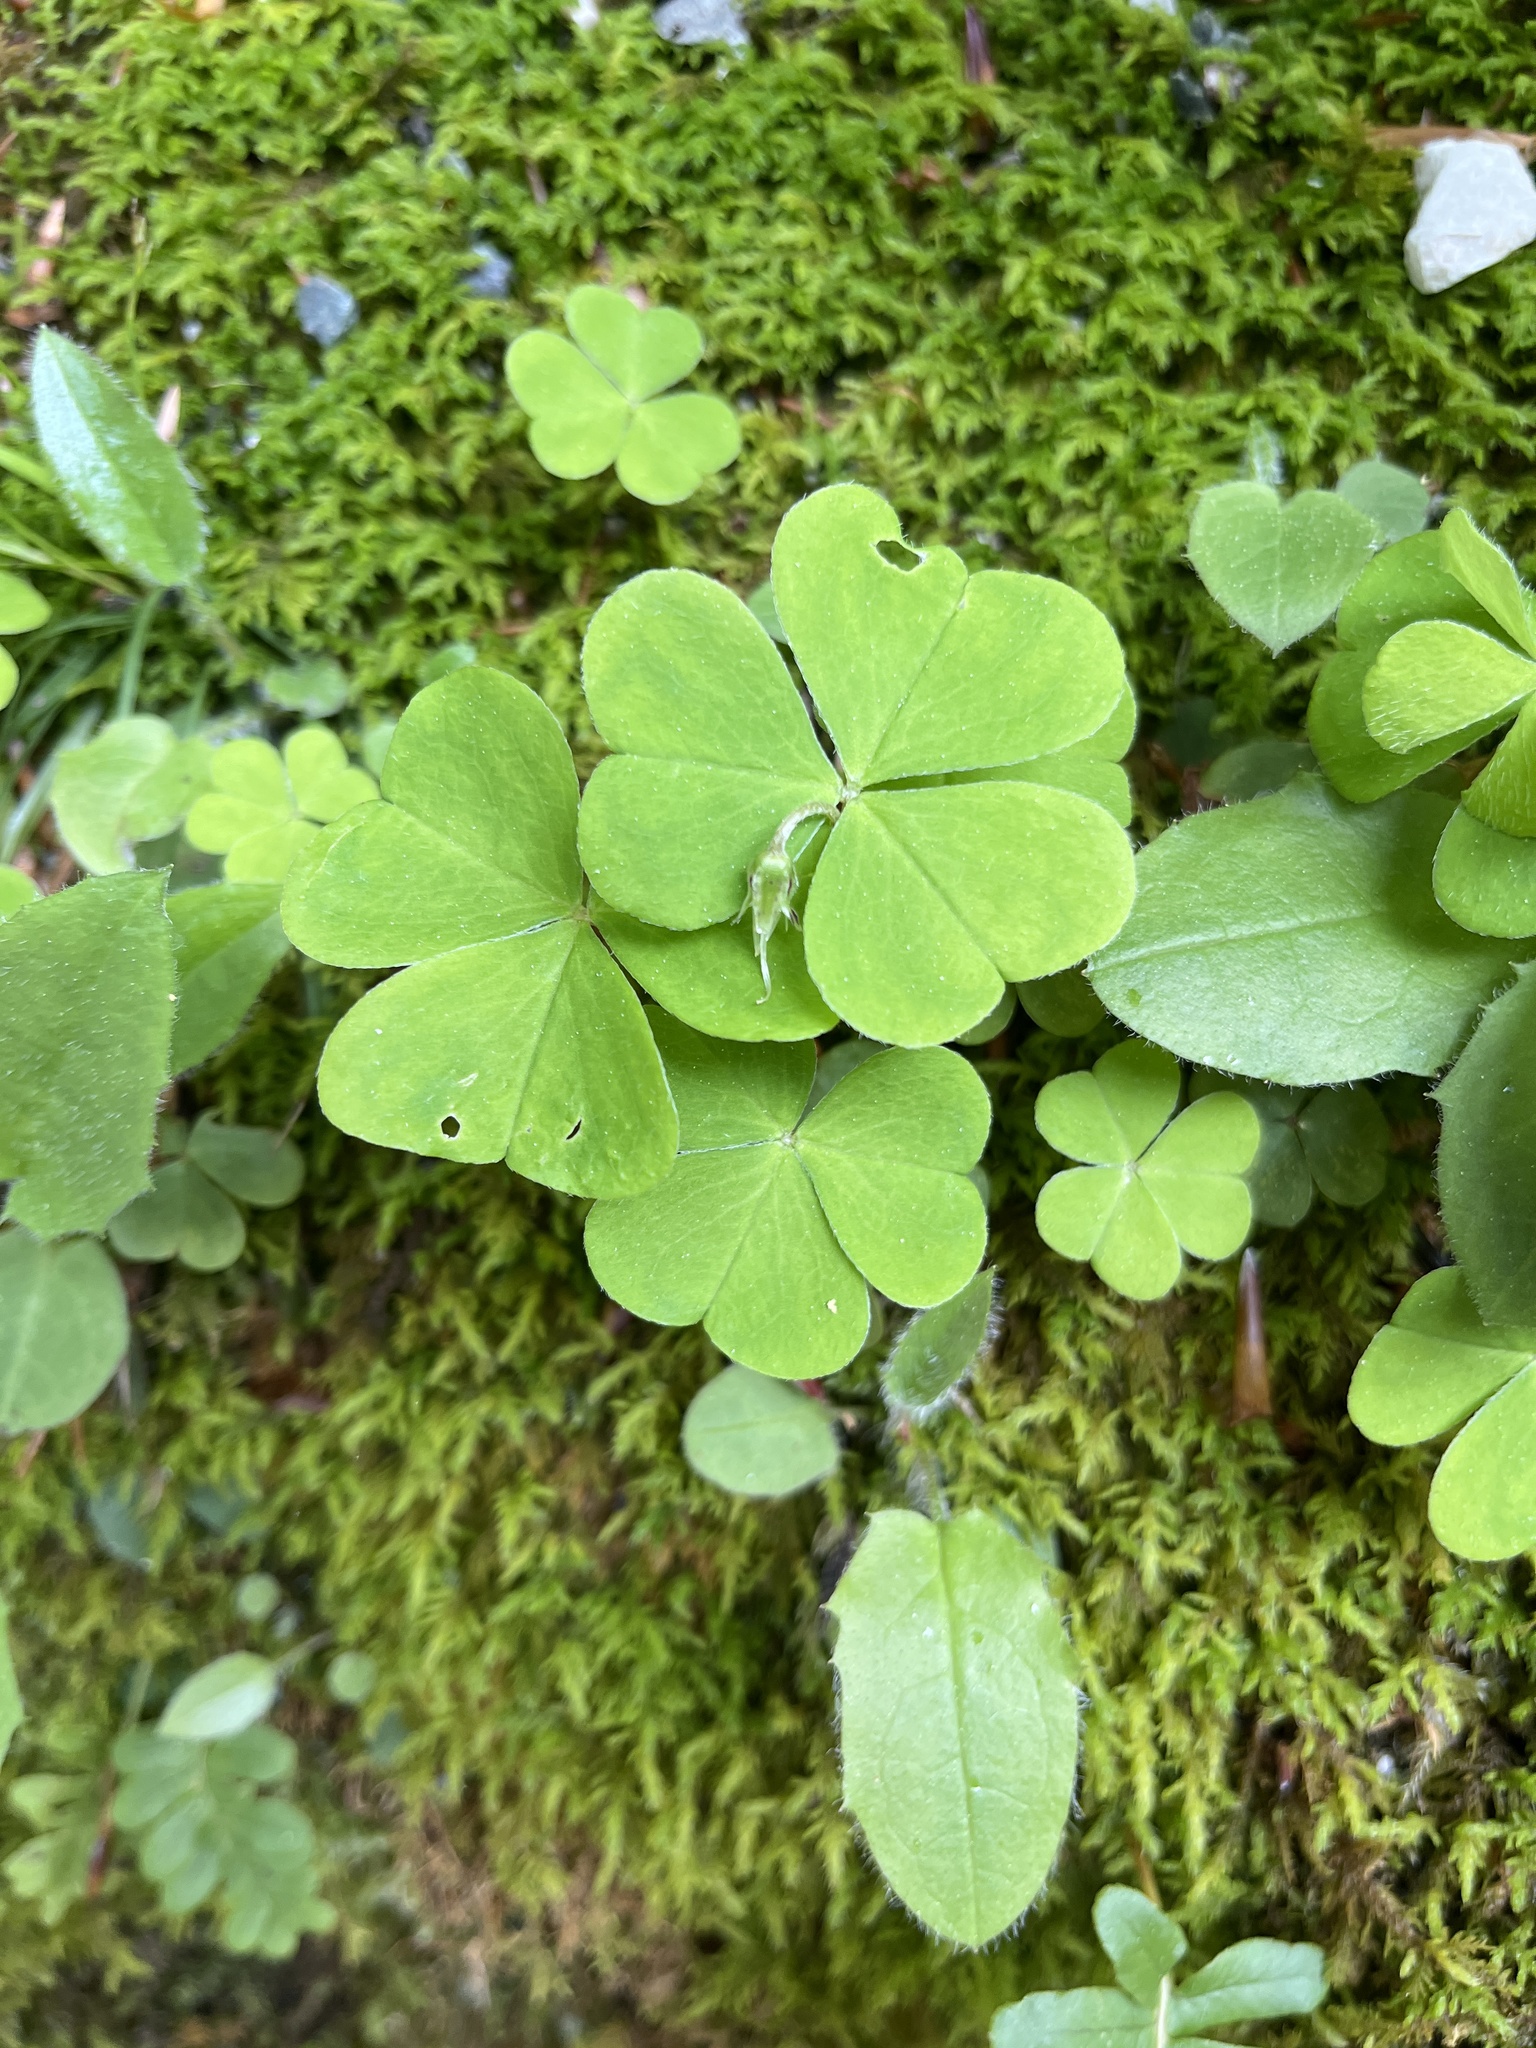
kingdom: Plantae
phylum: Tracheophyta
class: Magnoliopsida
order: Oxalidales
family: Oxalidaceae
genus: Oxalis
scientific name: Oxalis acetosella
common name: Wood-sorrel
